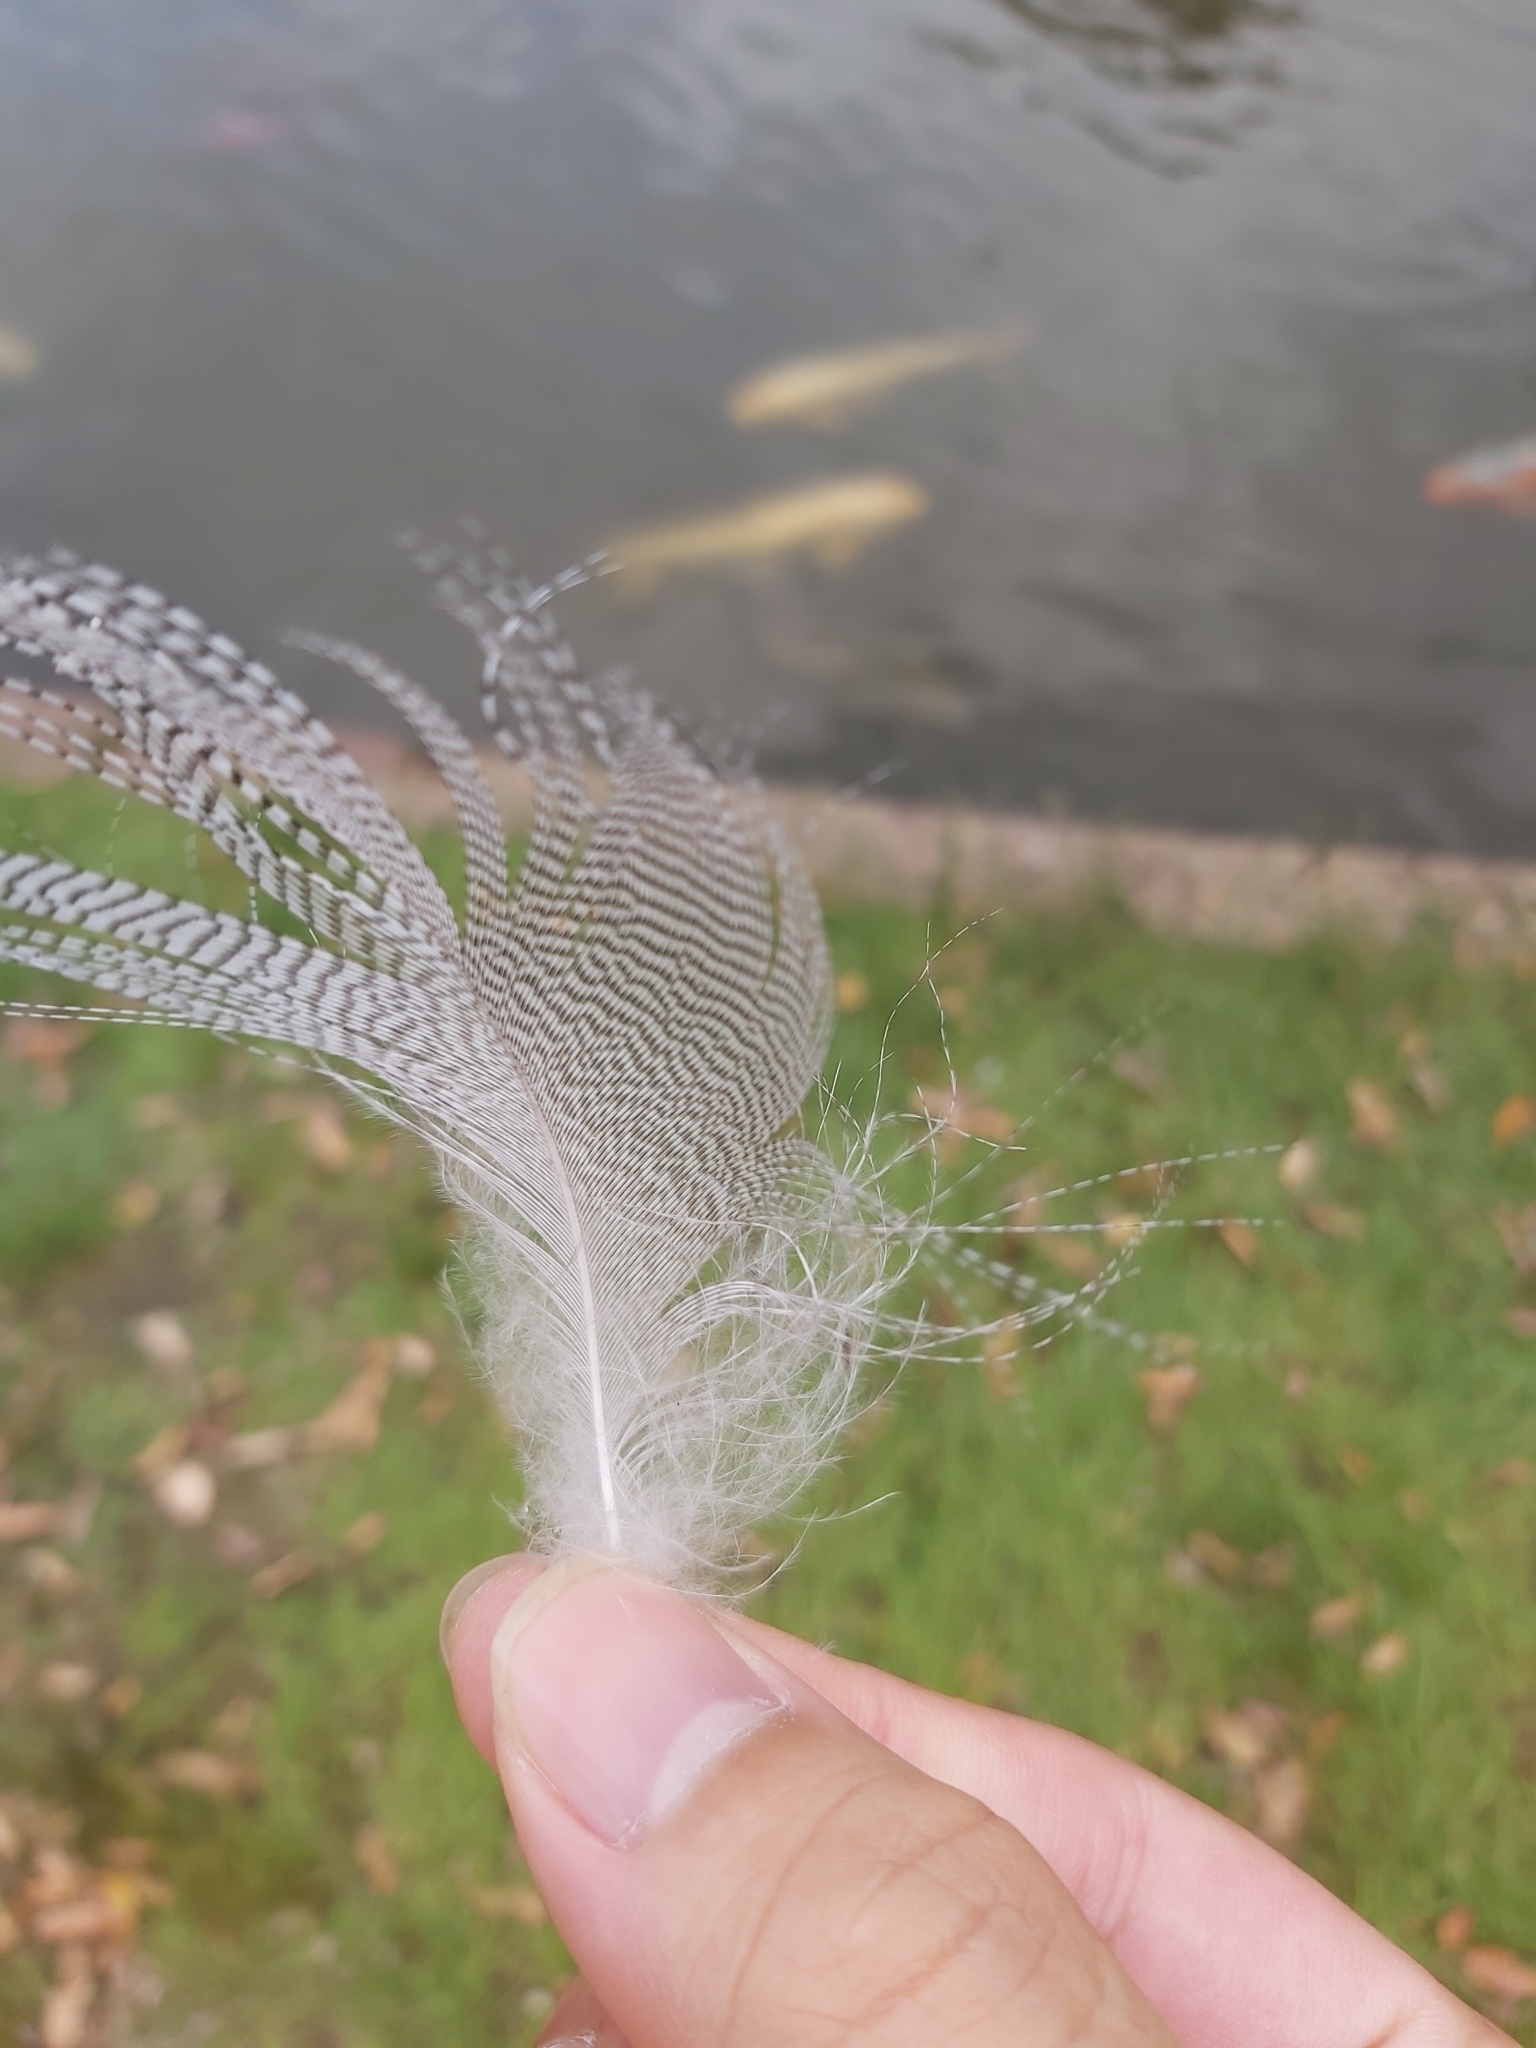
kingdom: Animalia
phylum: Chordata
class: Aves
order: Anseriformes
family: Anatidae
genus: Chenonetta
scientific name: Chenonetta jubata
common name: Maned duck
